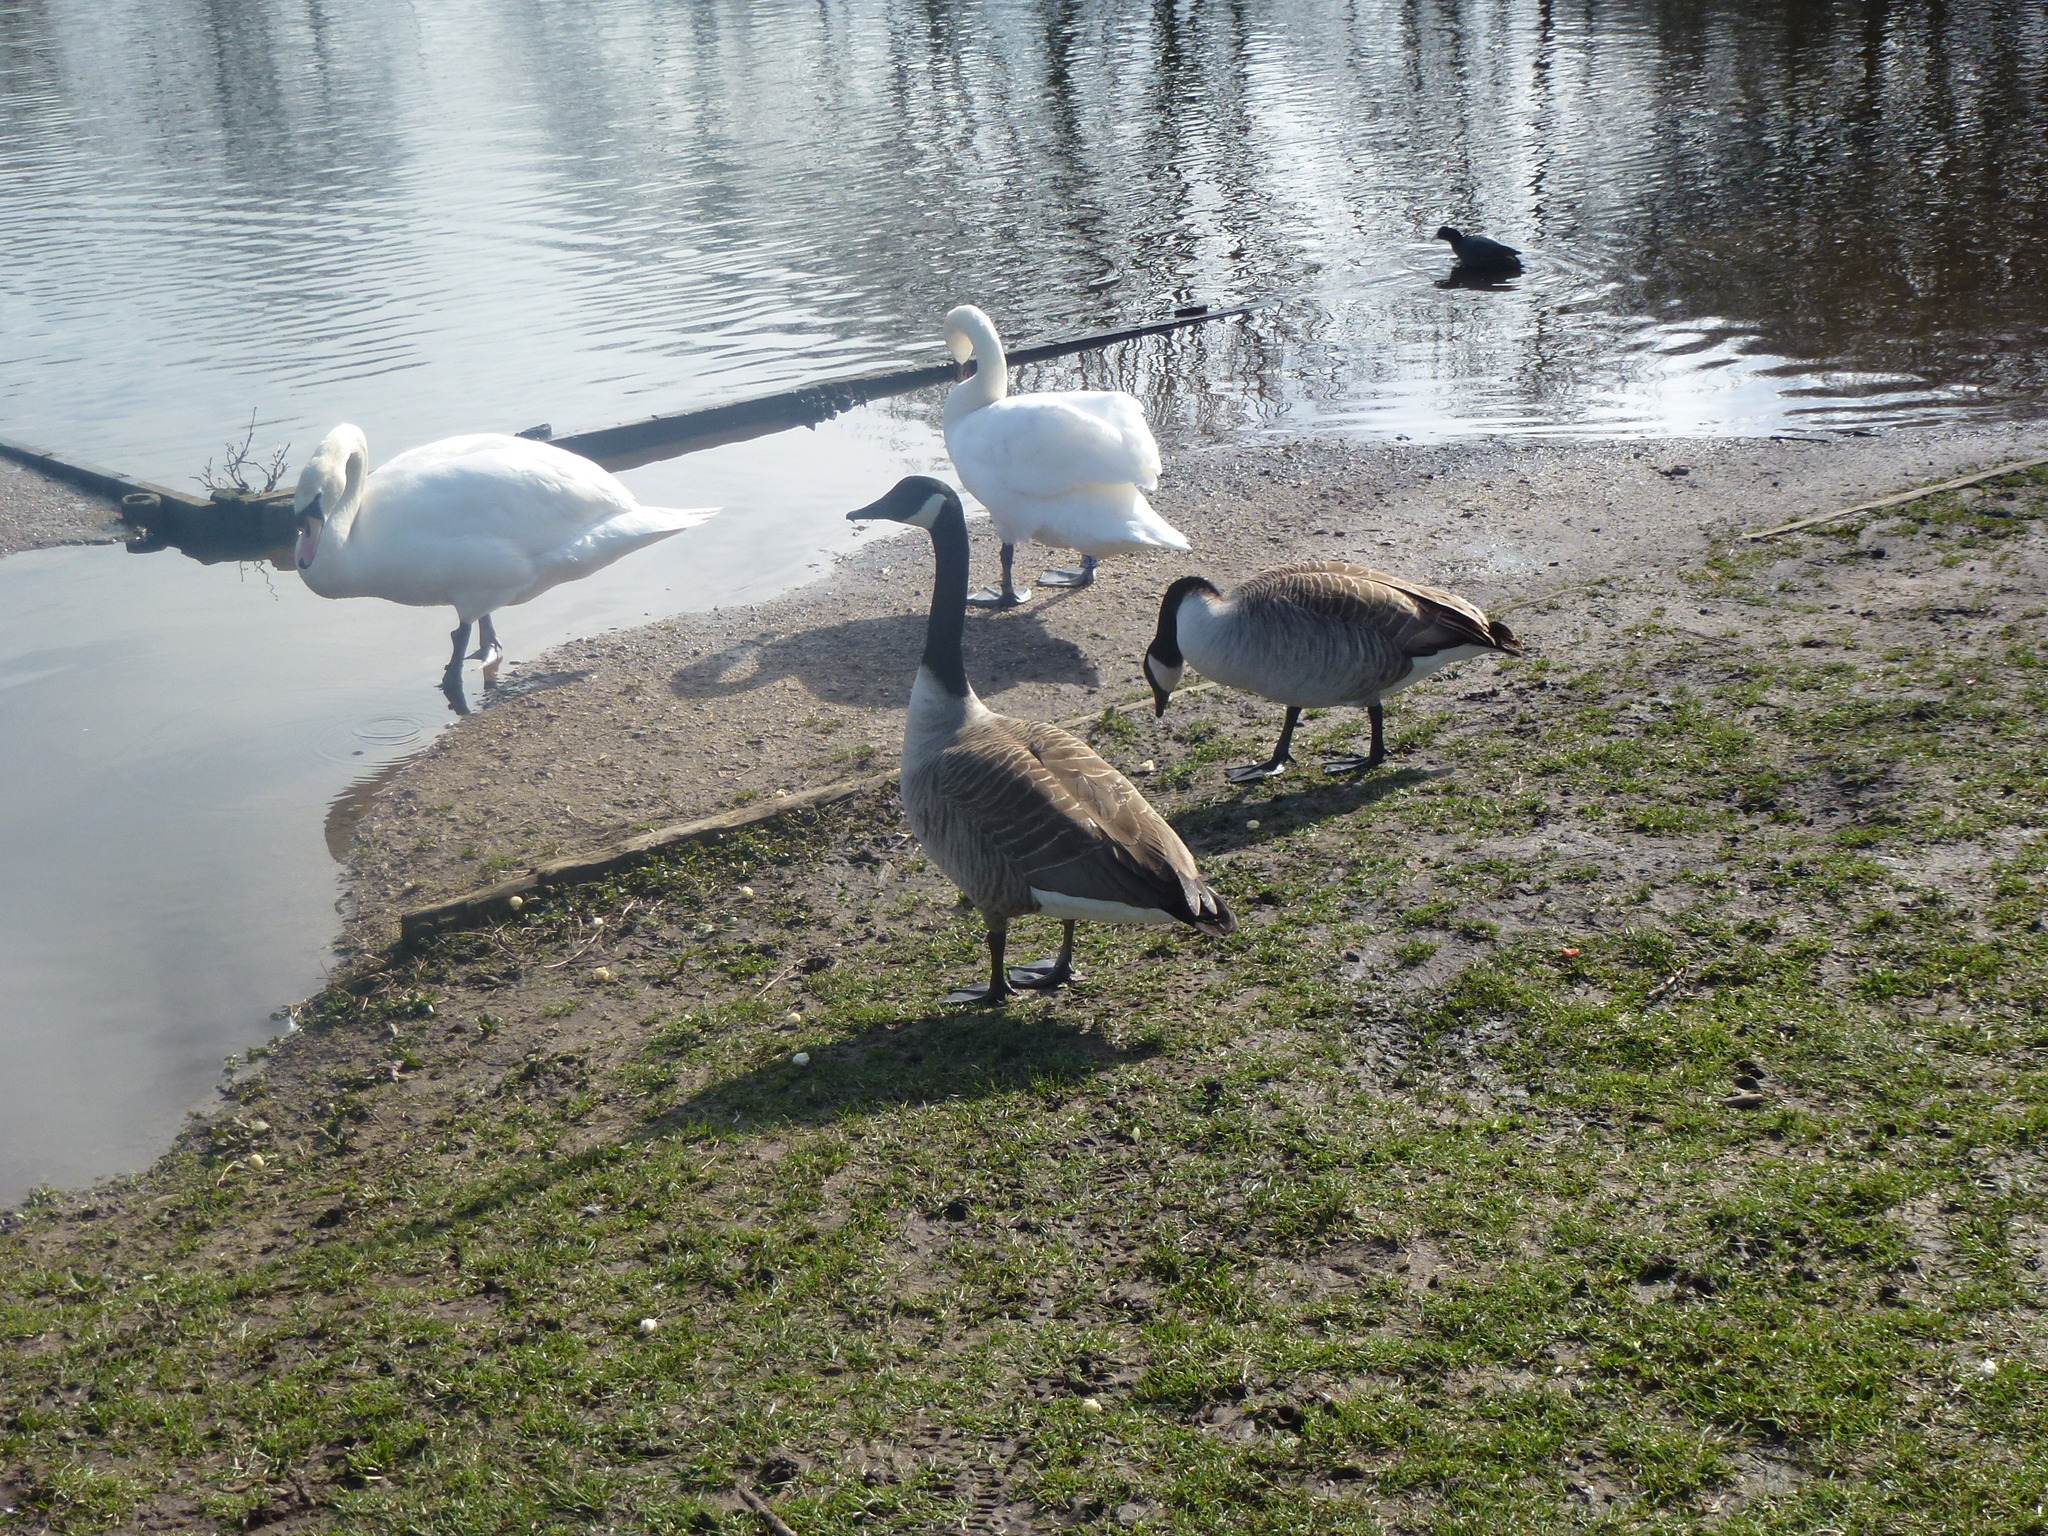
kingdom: Animalia
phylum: Chordata
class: Aves
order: Anseriformes
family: Anatidae
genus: Branta
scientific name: Branta canadensis
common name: Canada goose
